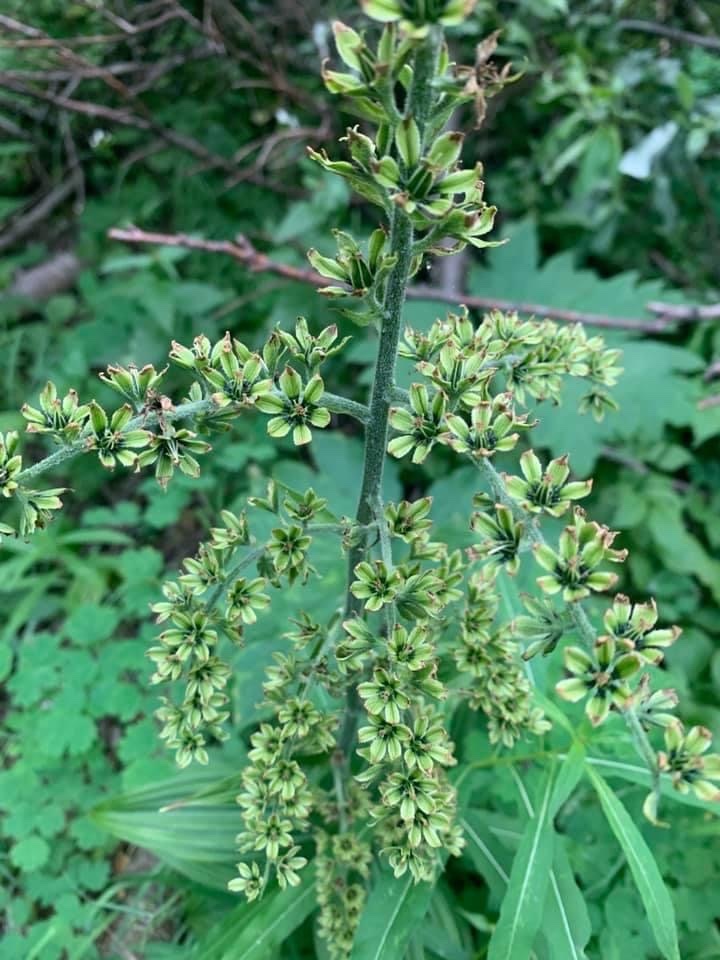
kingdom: Plantae
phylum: Tracheophyta
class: Liliopsida
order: Liliales
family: Melanthiaceae
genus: Veratrum
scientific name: Veratrum viride
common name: American false hellebore
